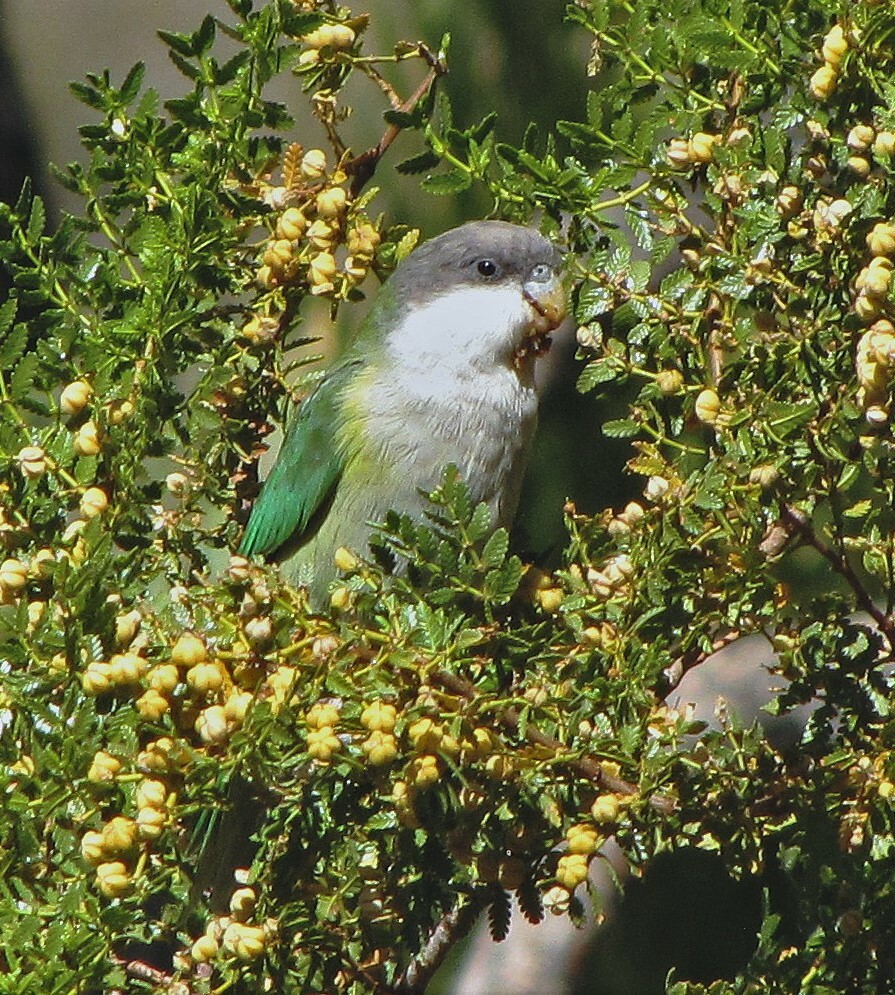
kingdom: Animalia
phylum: Chordata
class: Aves
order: Psittaciformes
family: Psittacidae
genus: Psilopsiagon
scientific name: Psilopsiagon aymara
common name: Grey-hooded parakeet
